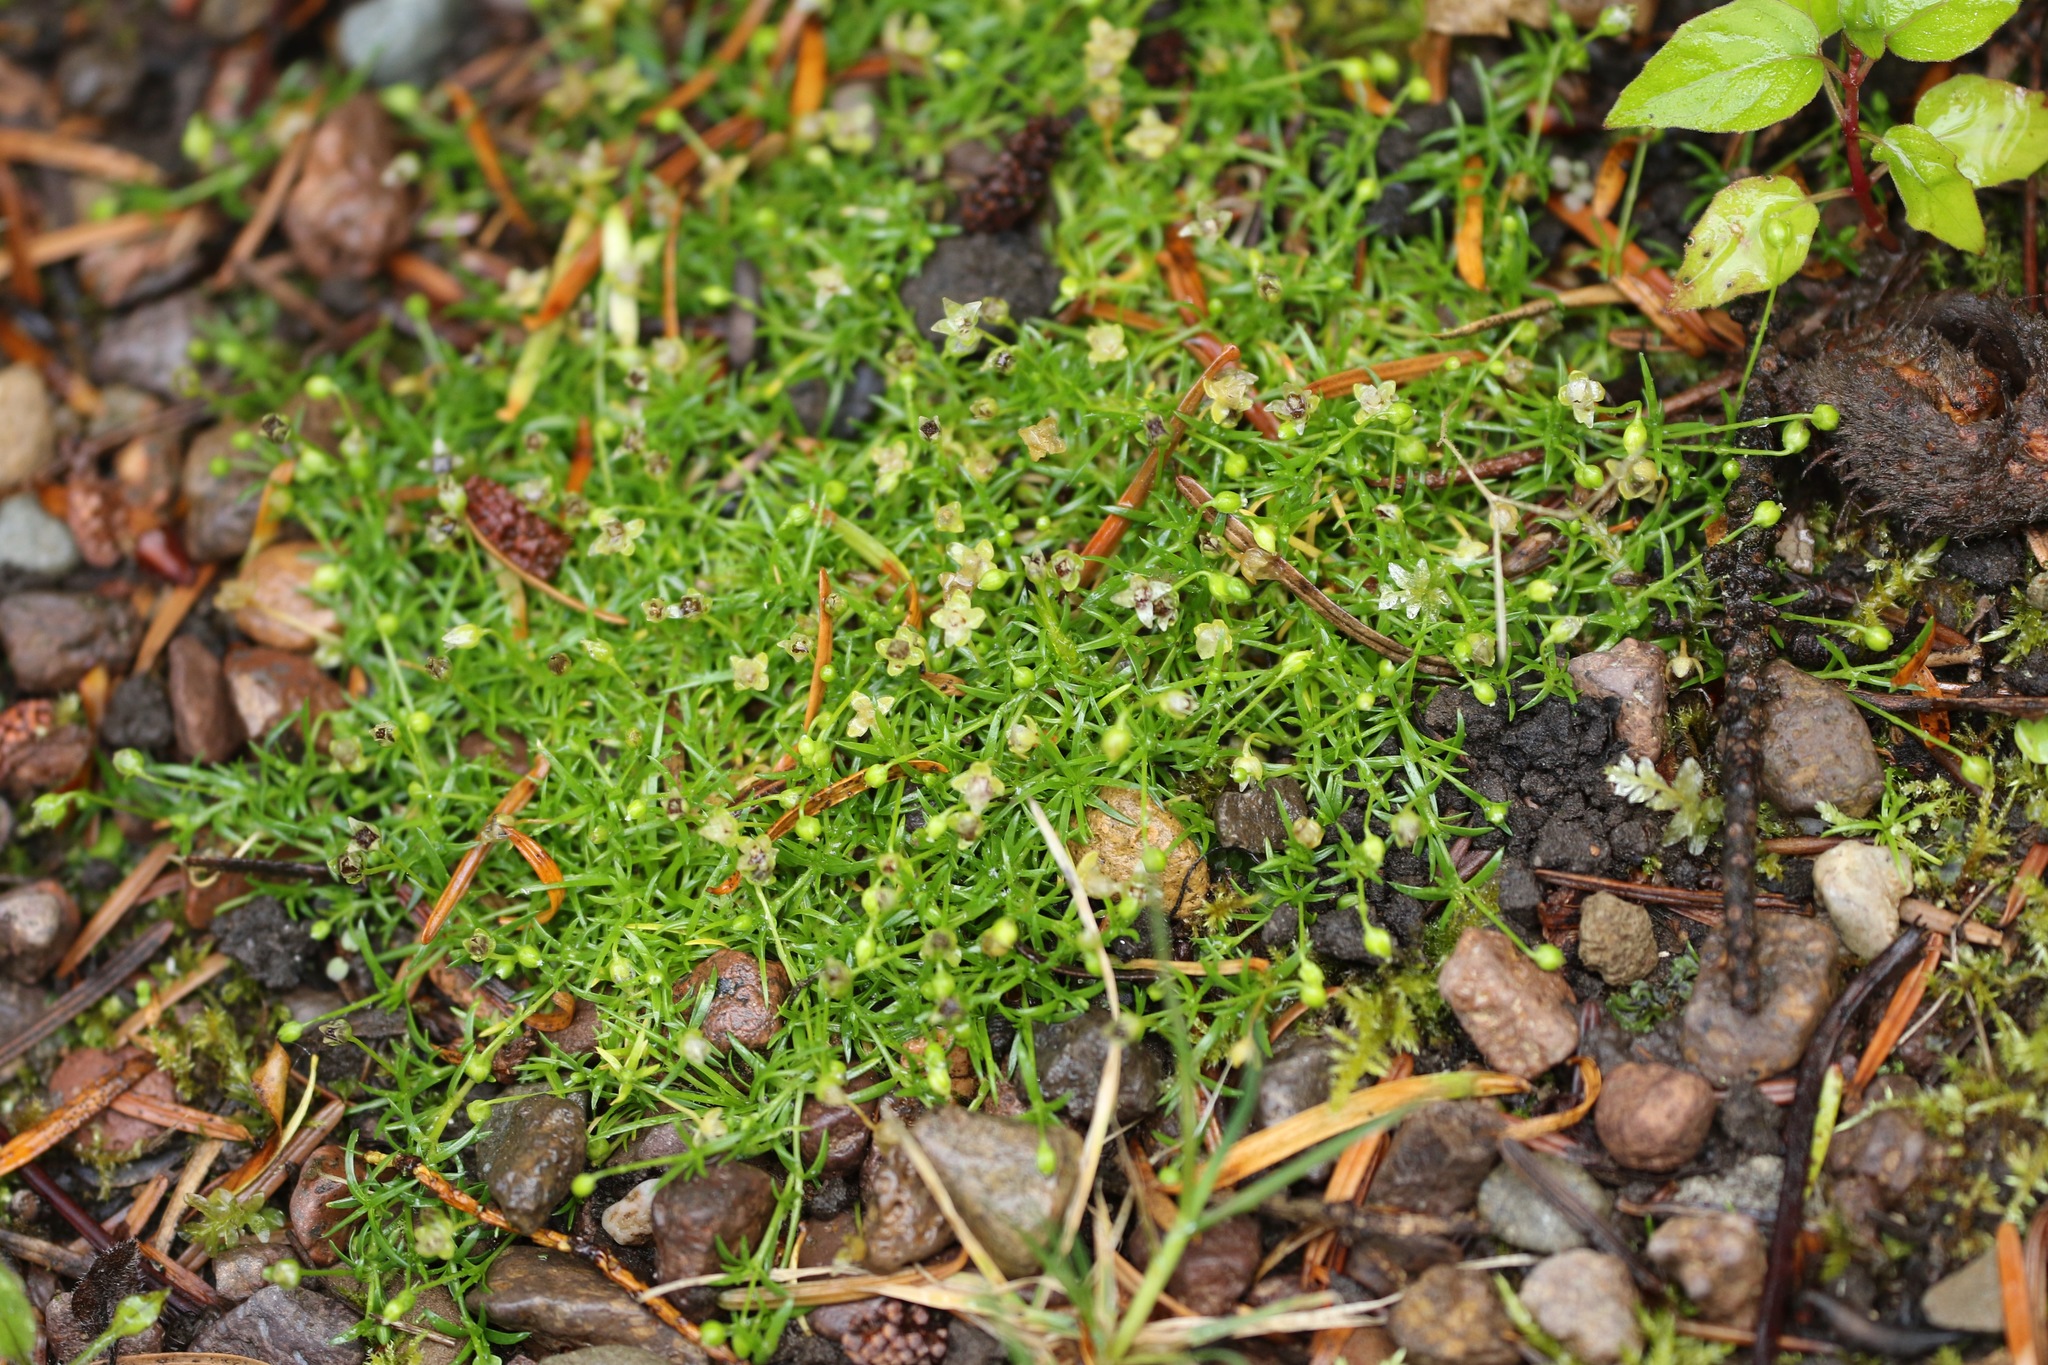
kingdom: Plantae
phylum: Tracheophyta
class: Magnoliopsida
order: Caryophyllales
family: Caryophyllaceae
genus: Sagina
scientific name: Sagina procumbens
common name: Procumbent pearlwort
